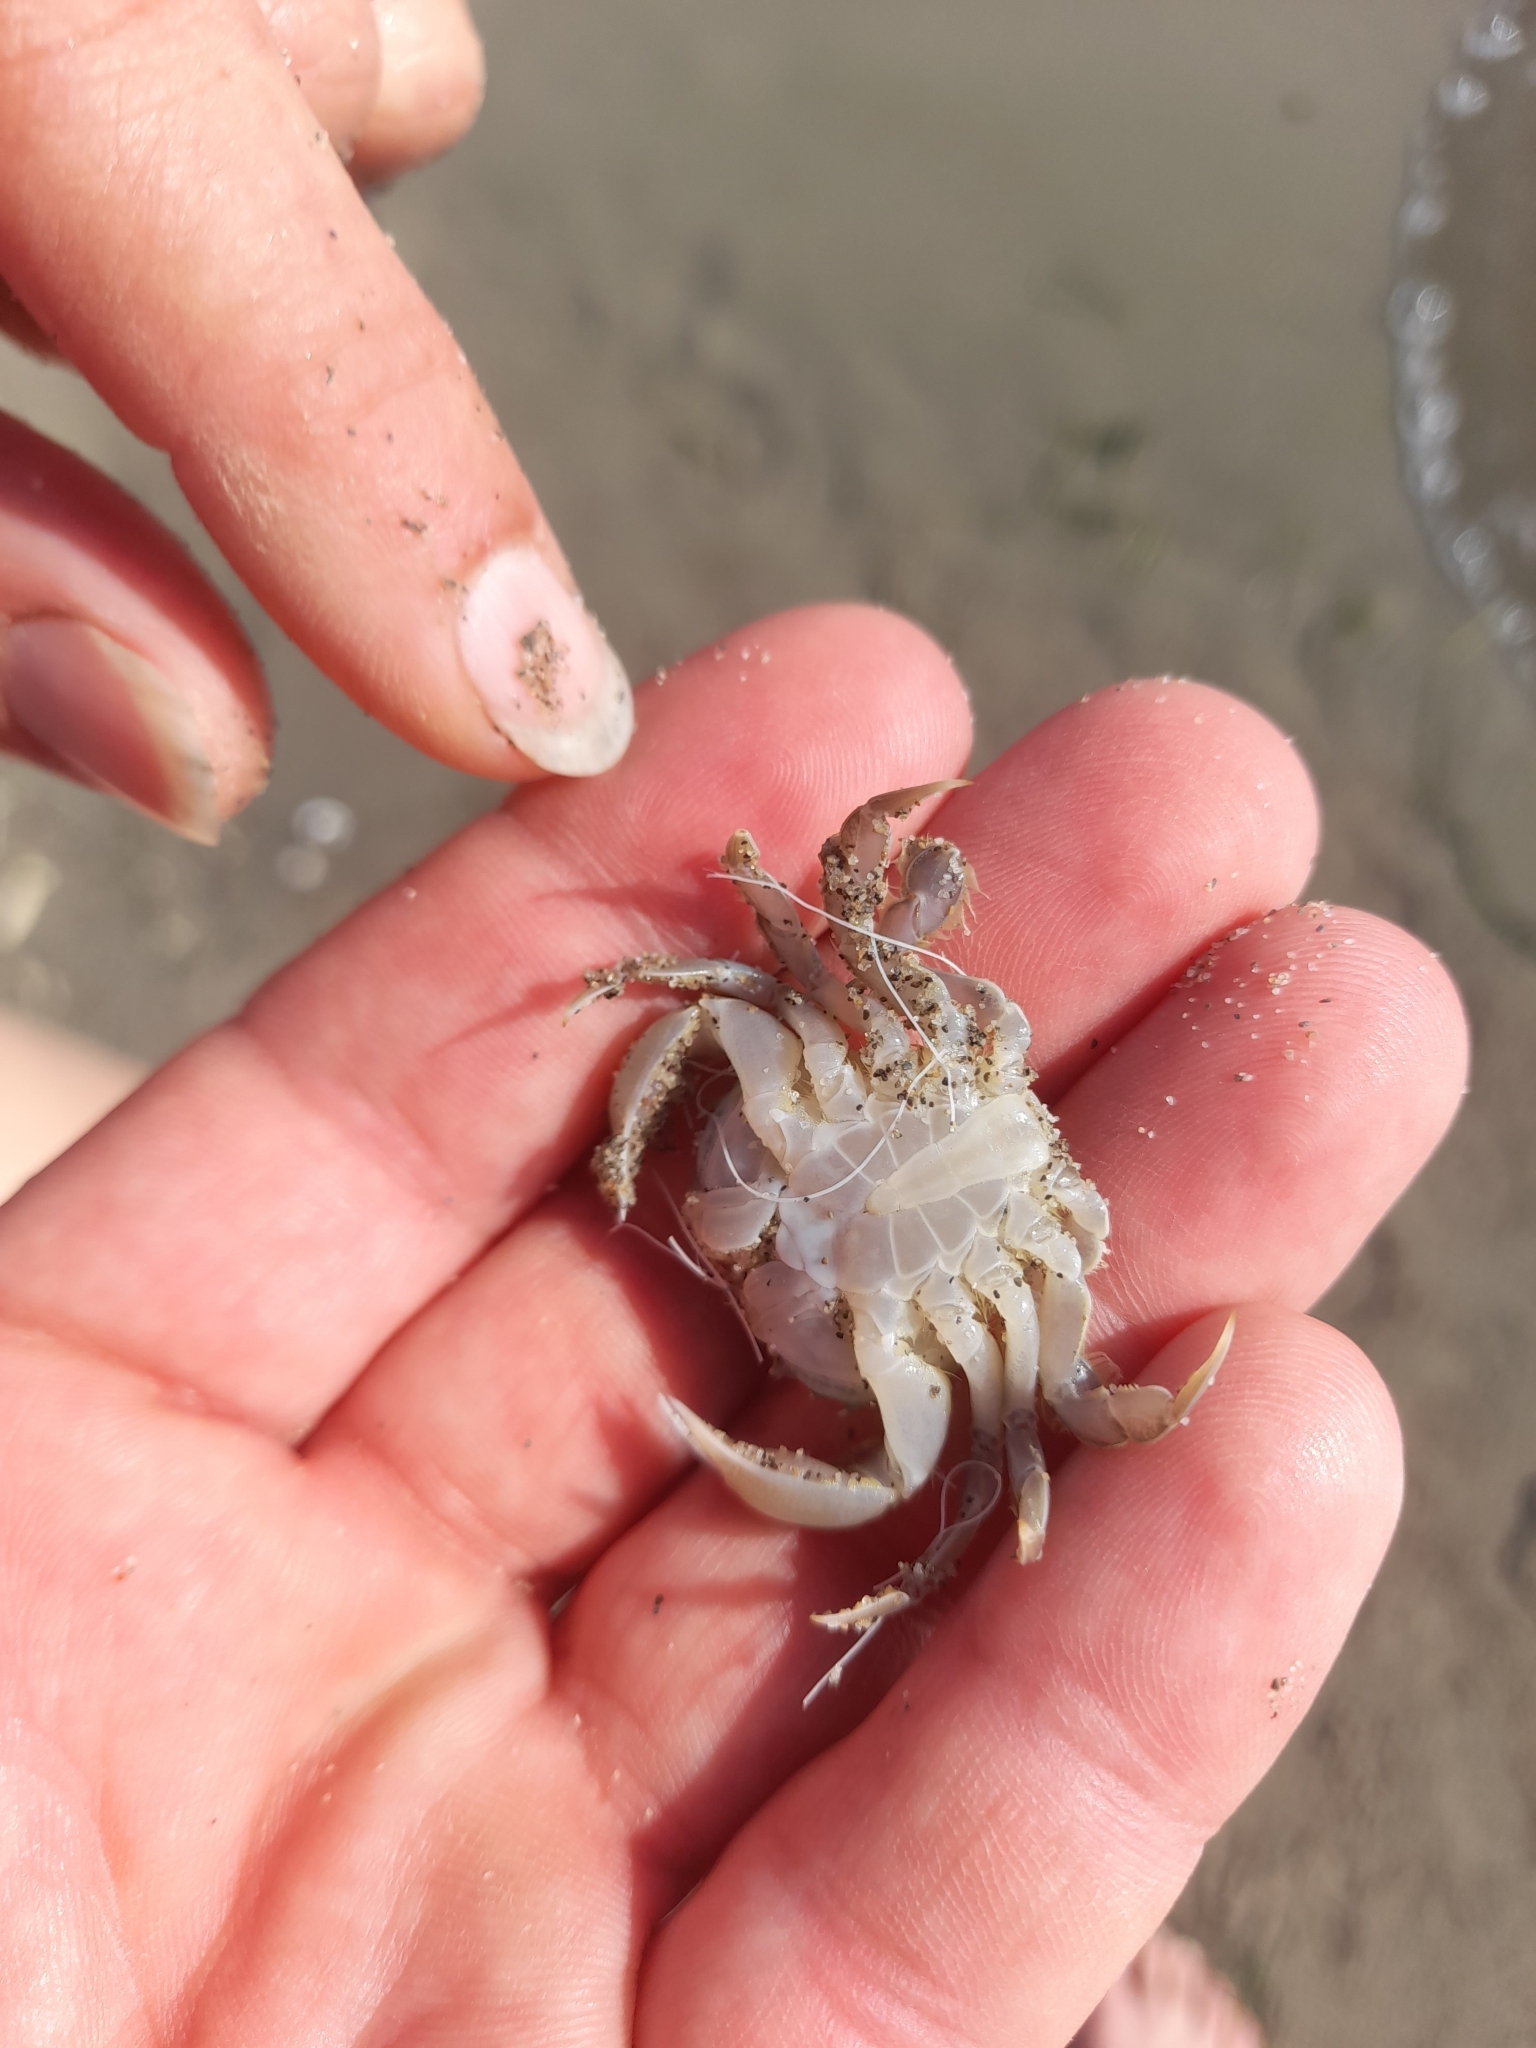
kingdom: Animalia
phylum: Arthropoda
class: Malacostraca
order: Decapoda
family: Carcinidae
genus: Portumnus
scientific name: Portumnus latipes
